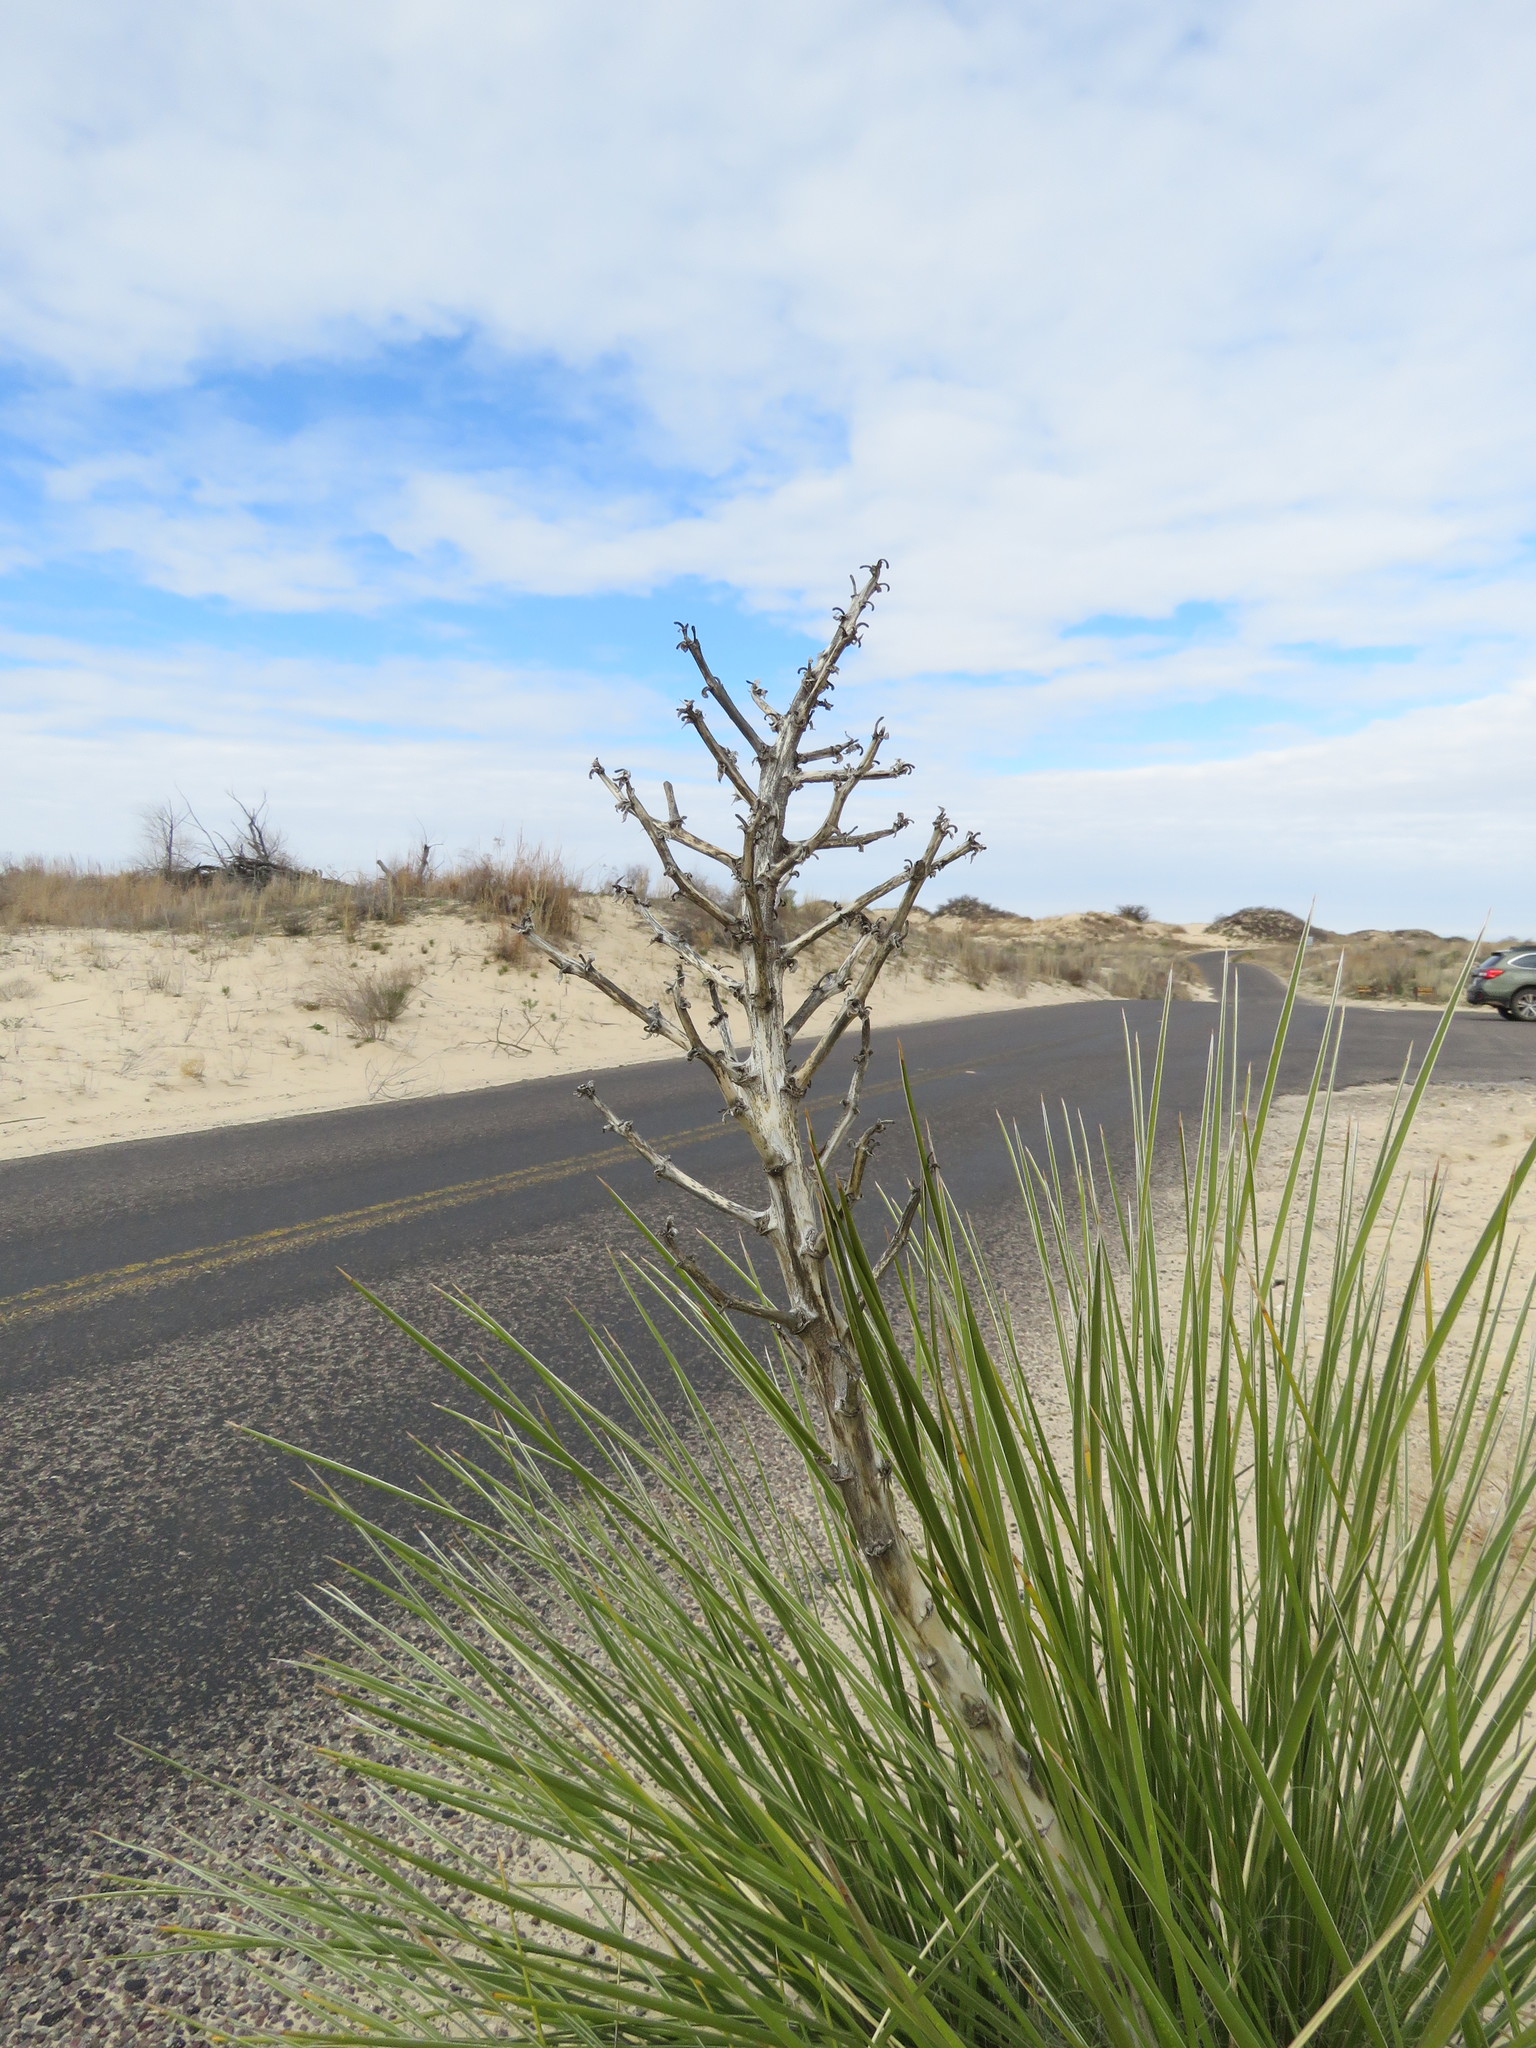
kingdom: Plantae
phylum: Tracheophyta
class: Liliopsida
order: Asparagales
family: Asparagaceae
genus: Yucca
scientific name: Yucca campestris
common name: Plains yucca
